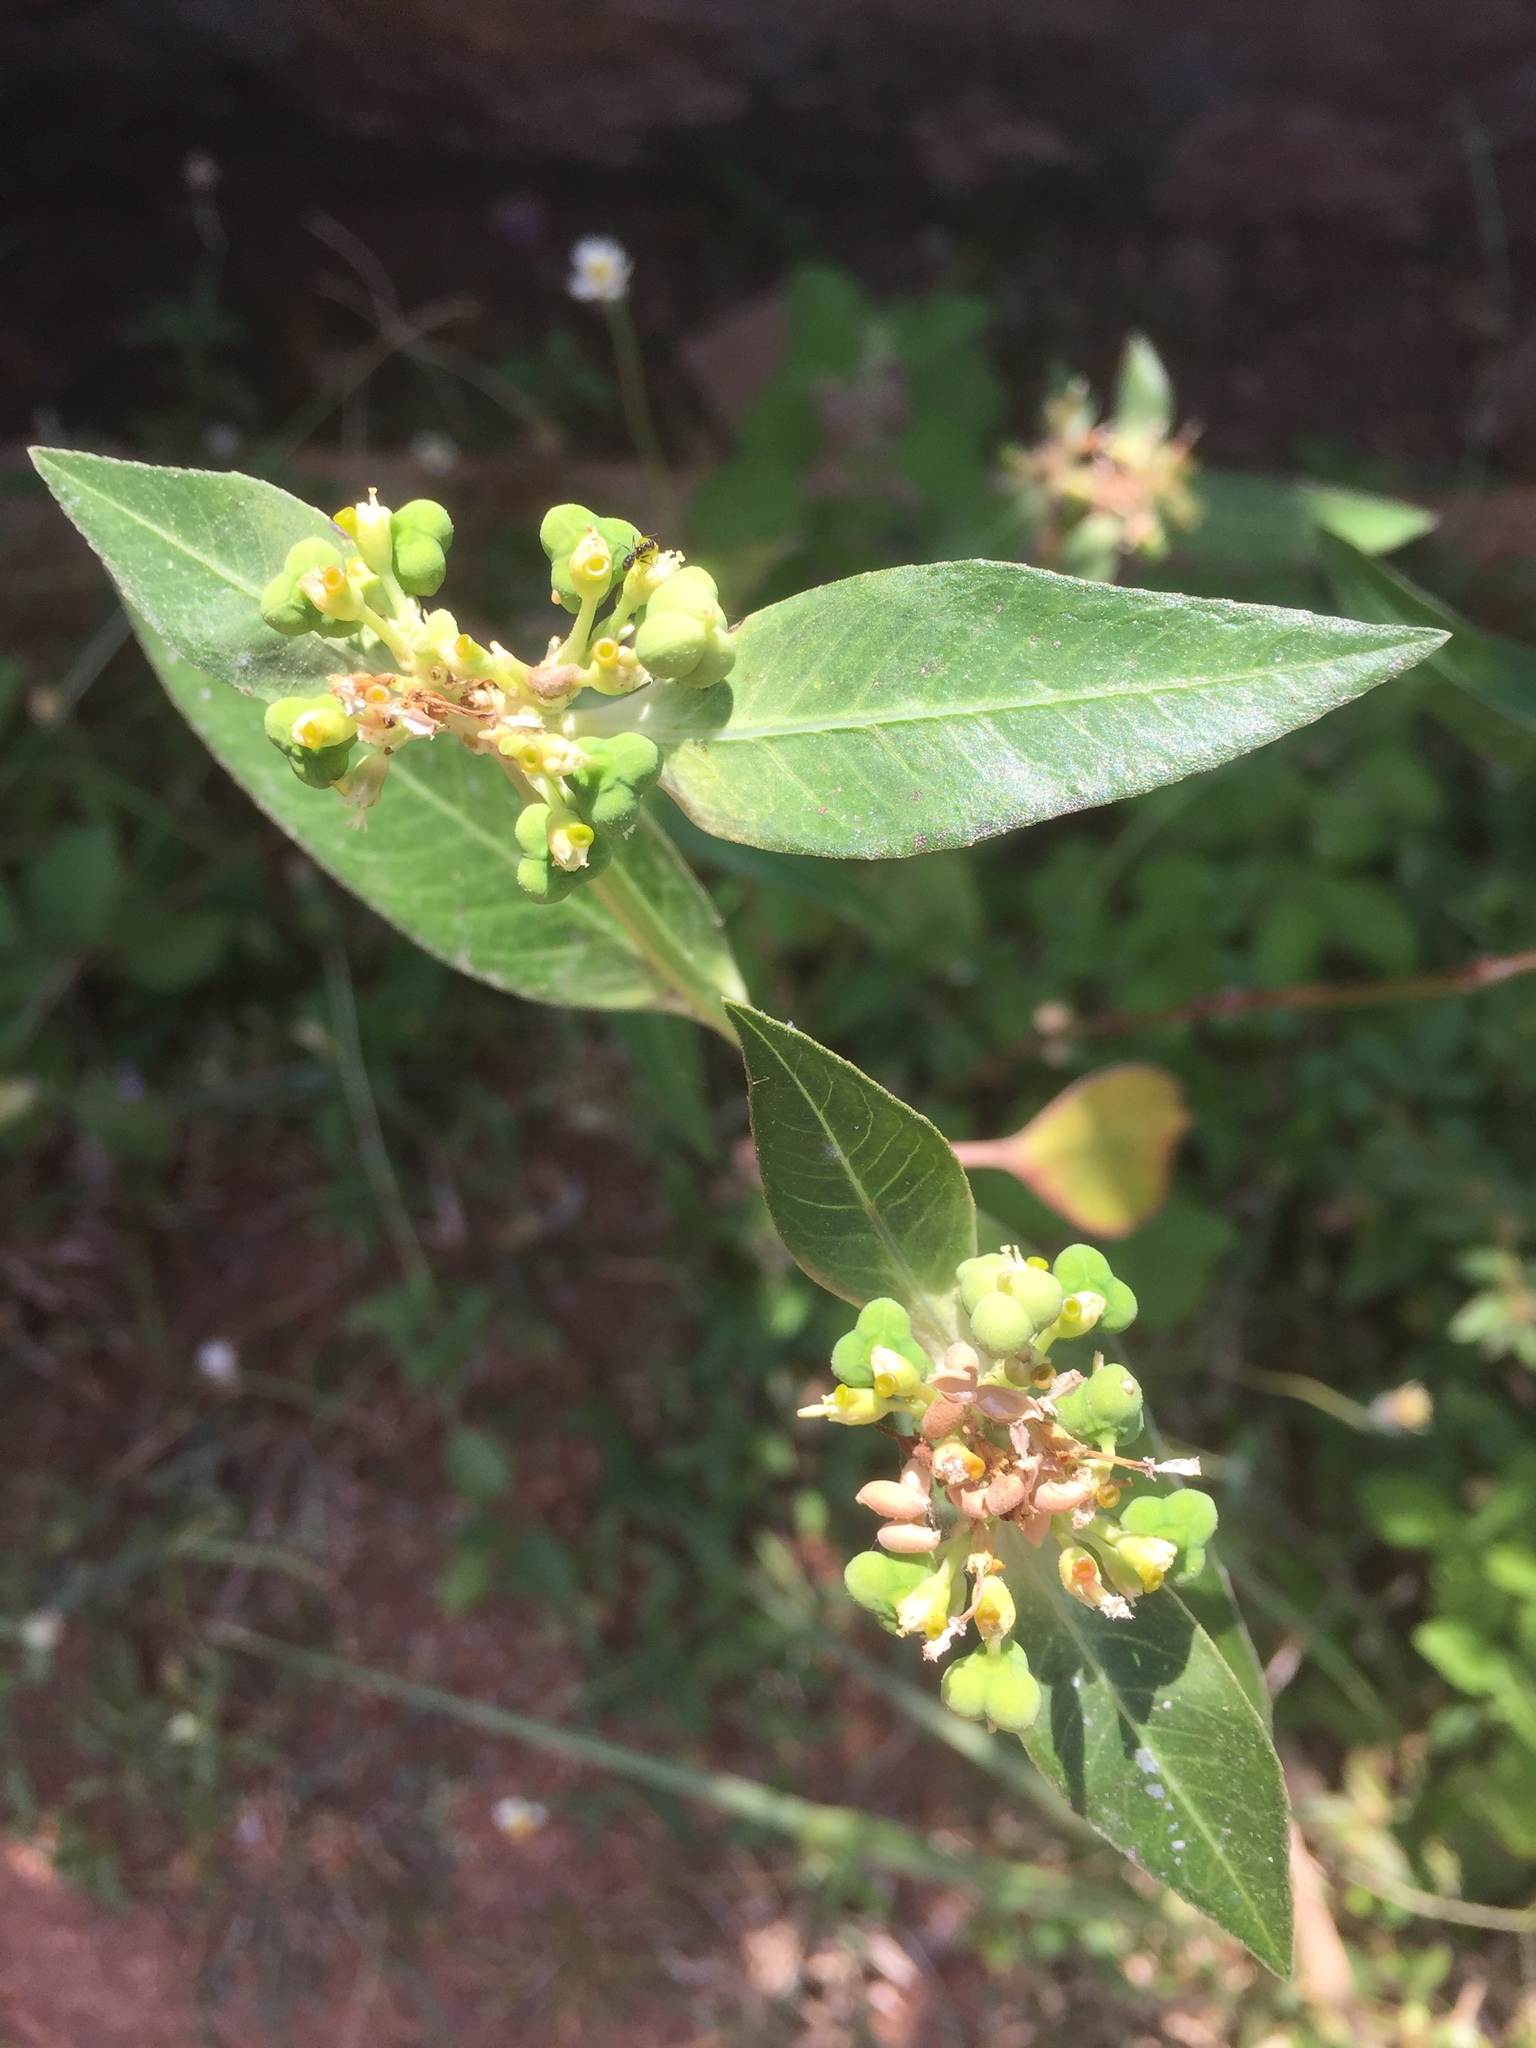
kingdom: Plantae
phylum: Tracheophyta
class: Magnoliopsida
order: Malpighiales
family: Euphorbiaceae
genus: Euphorbia
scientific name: Euphorbia heterophylla
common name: Mexican fireplant
